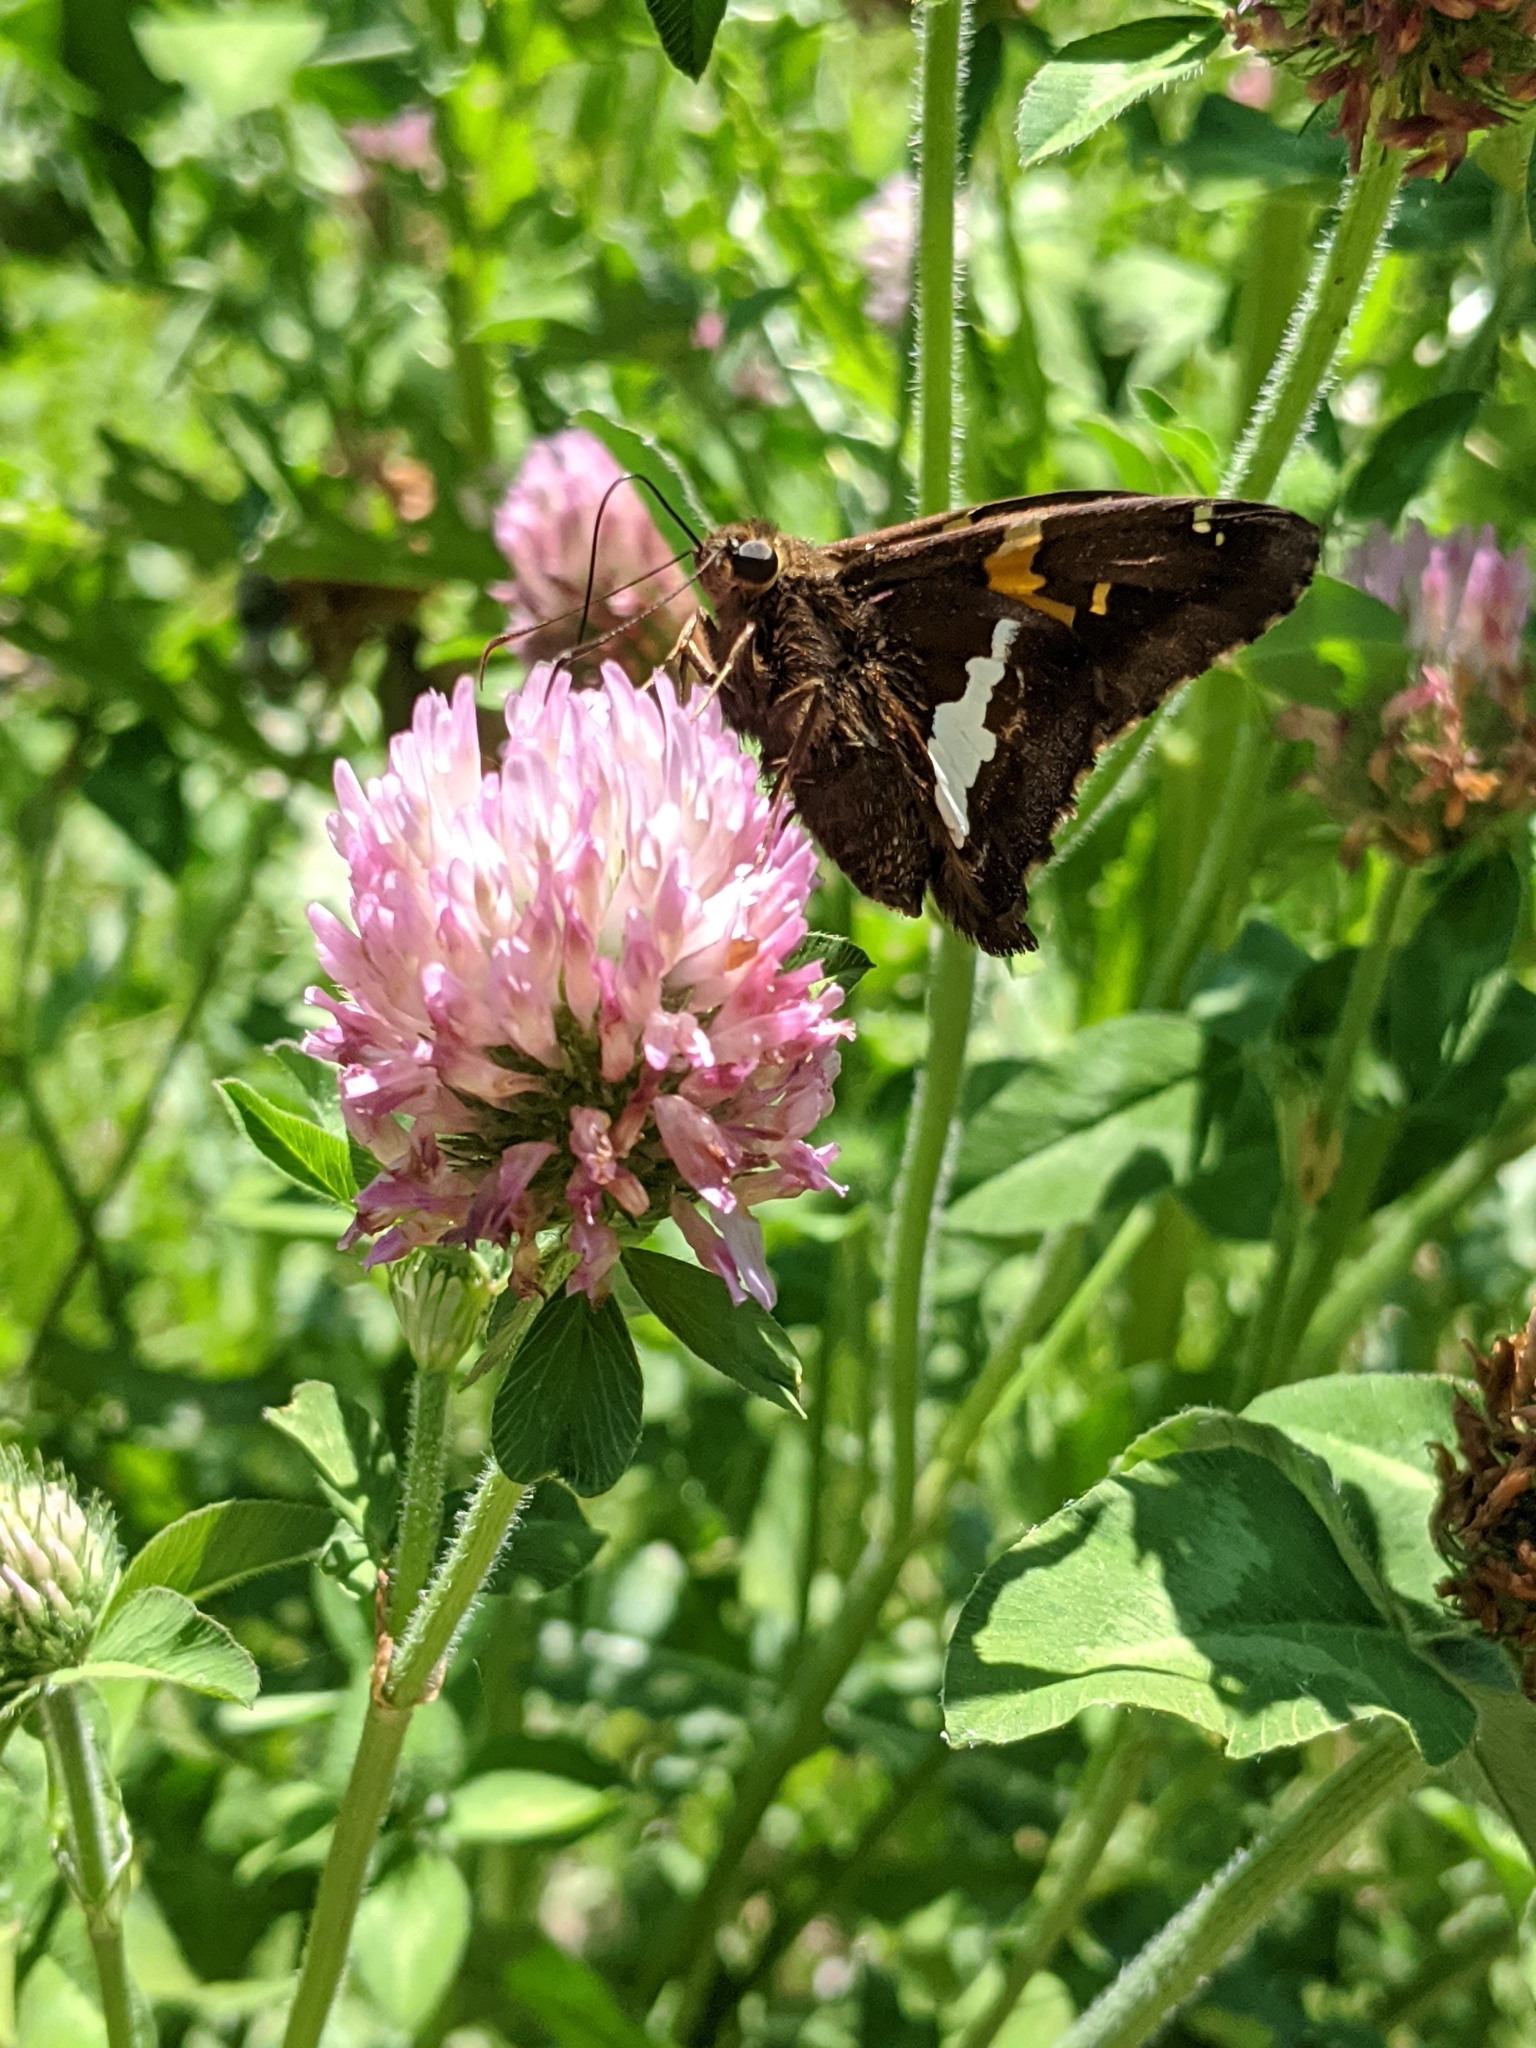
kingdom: Animalia
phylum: Arthropoda
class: Insecta
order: Lepidoptera
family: Hesperiidae
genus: Epargyreus
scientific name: Epargyreus clarus
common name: Silver-spotted skipper
